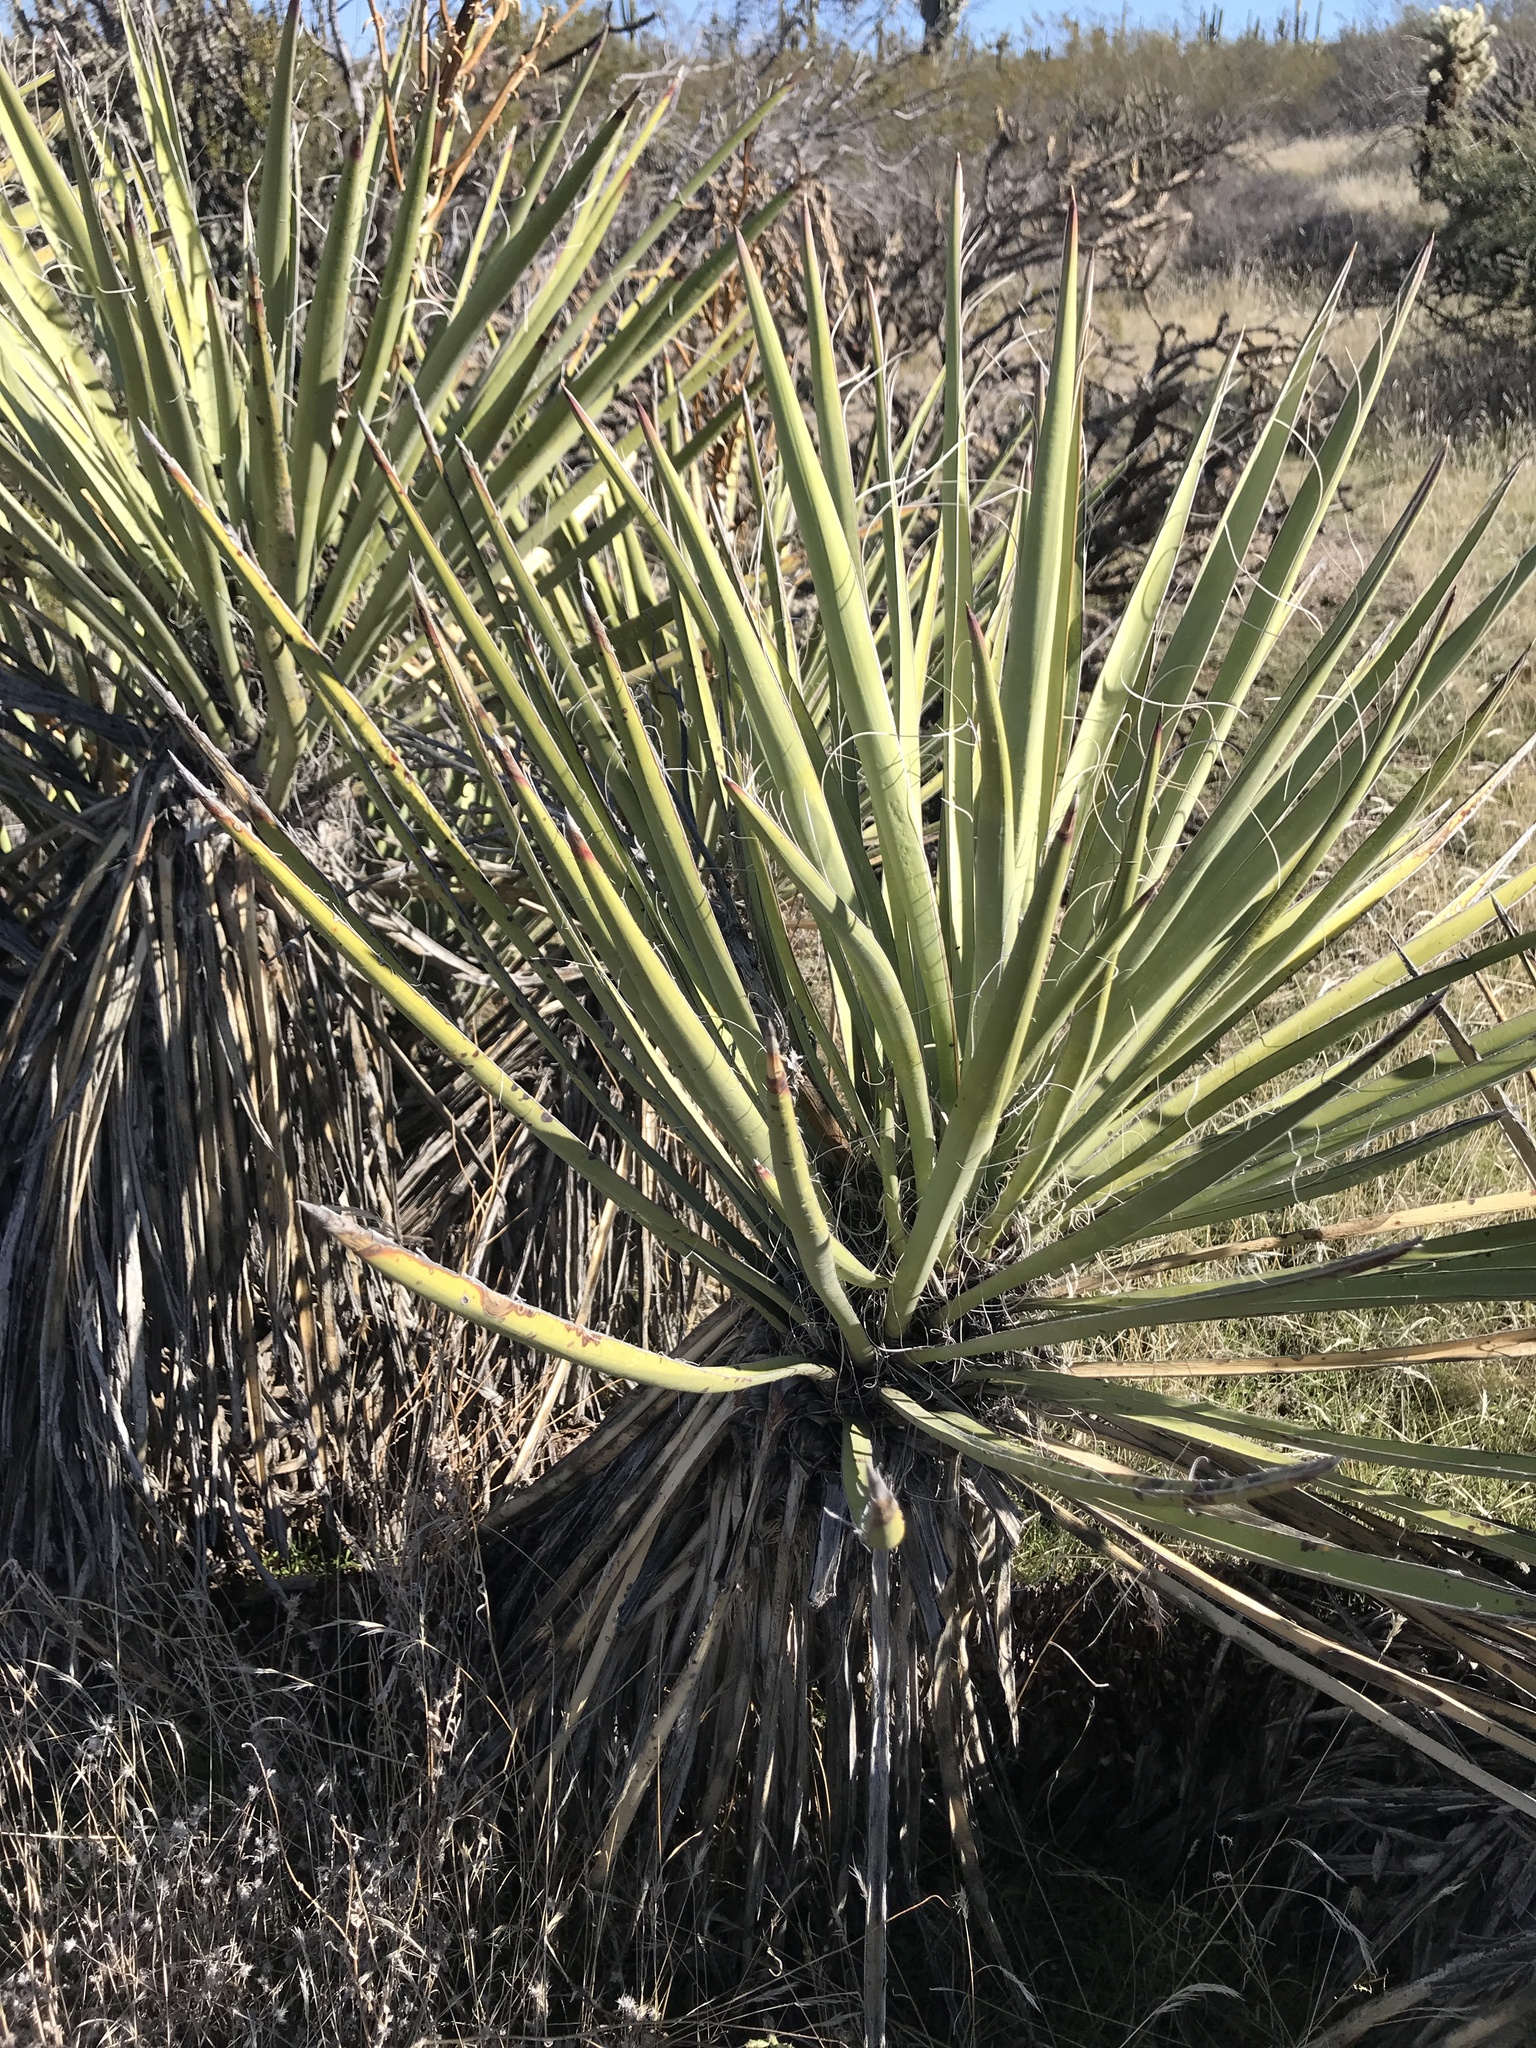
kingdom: Plantae
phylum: Tracheophyta
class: Liliopsida
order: Asparagales
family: Asparagaceae
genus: Yucca
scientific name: Yucca baccata
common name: Banana yucca
